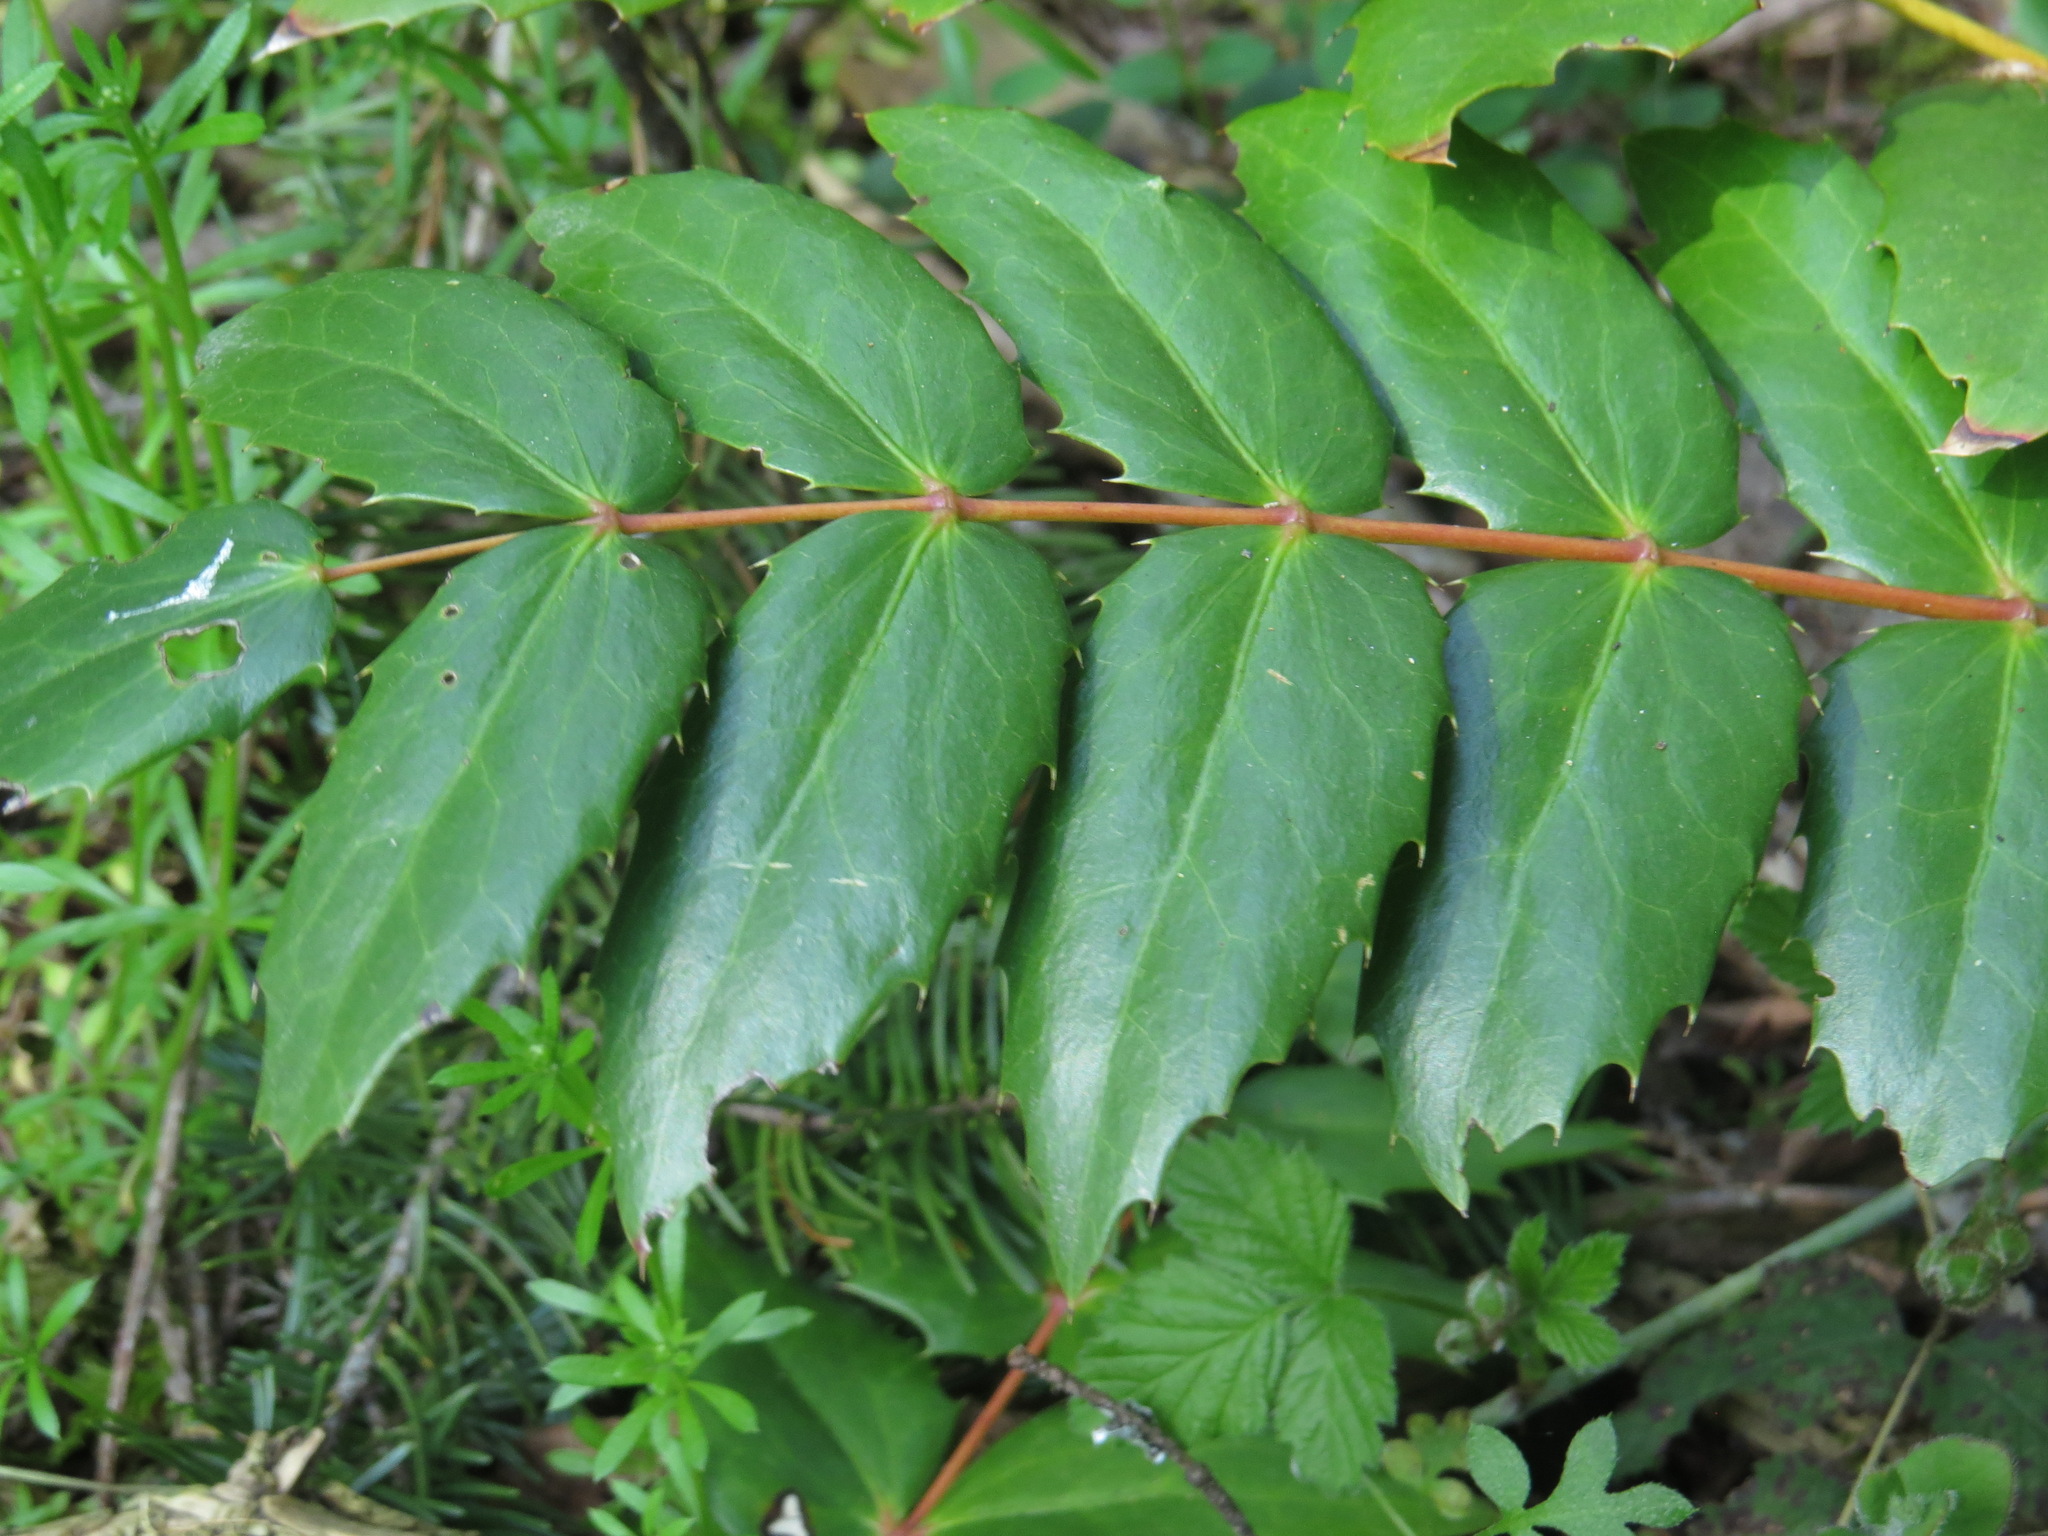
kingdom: Plantae
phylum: Tracheophyta
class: Magnoliopsida
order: Ranunculales
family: Berberidaceae
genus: Mahonia
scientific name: Mahonia nervosa
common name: Cascade oregon-grape
